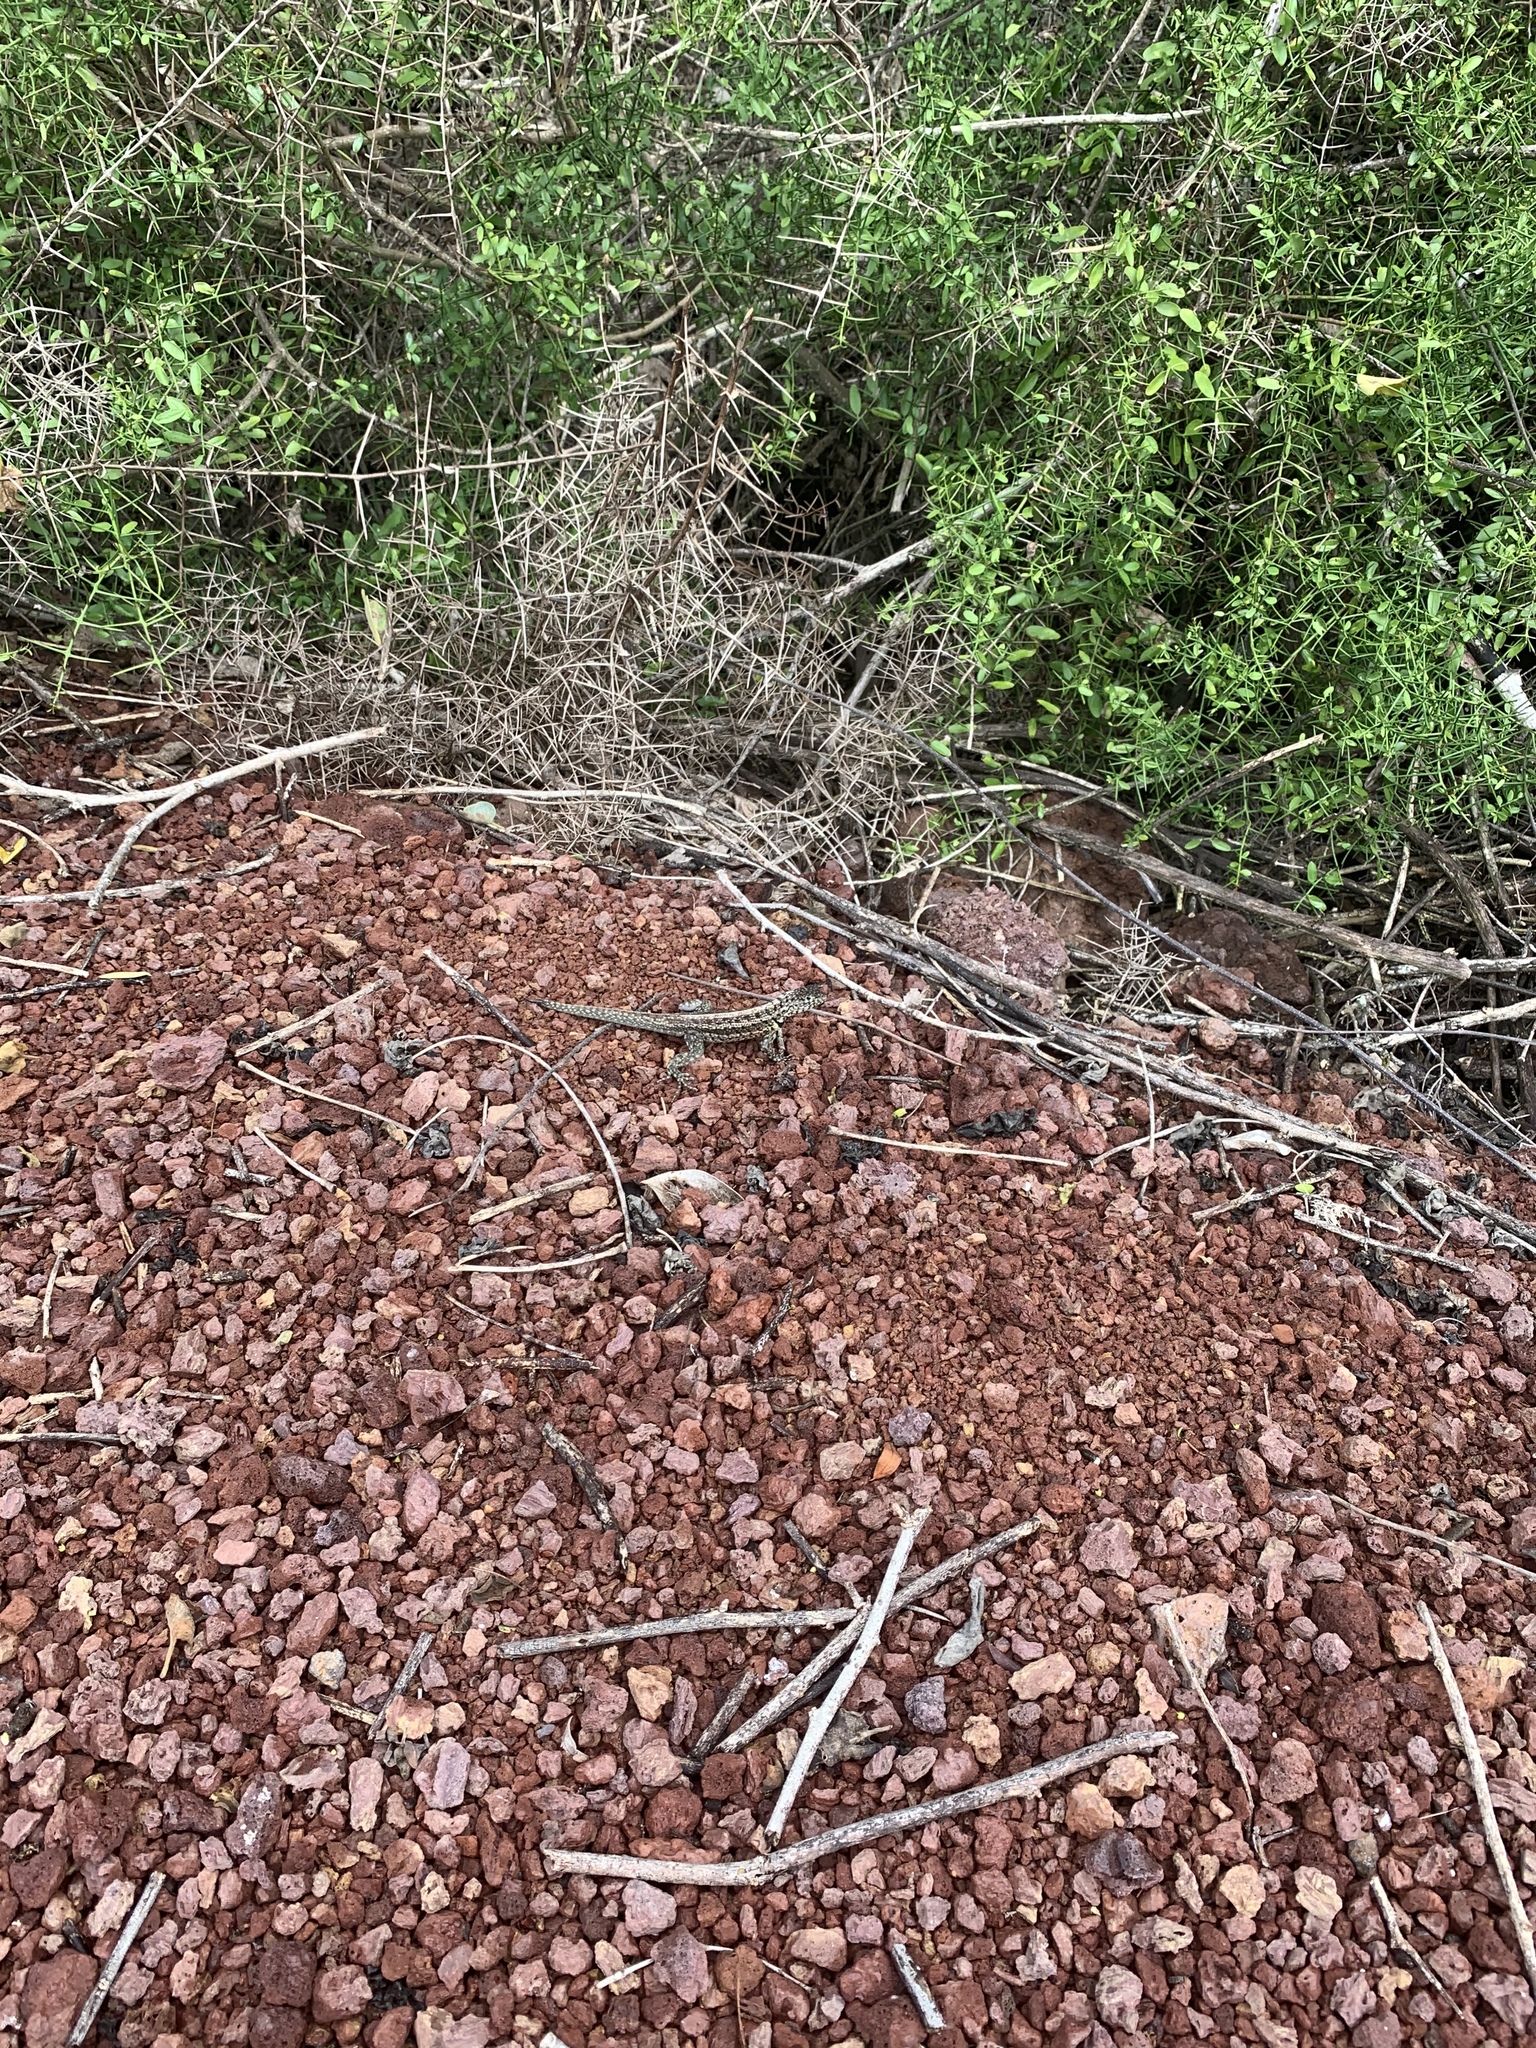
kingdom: Animalia
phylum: Chordata
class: Squamata
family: Tropiduridae
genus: Microlophus
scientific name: Microlophus indefatigabilis
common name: Galapagos lava lizard
